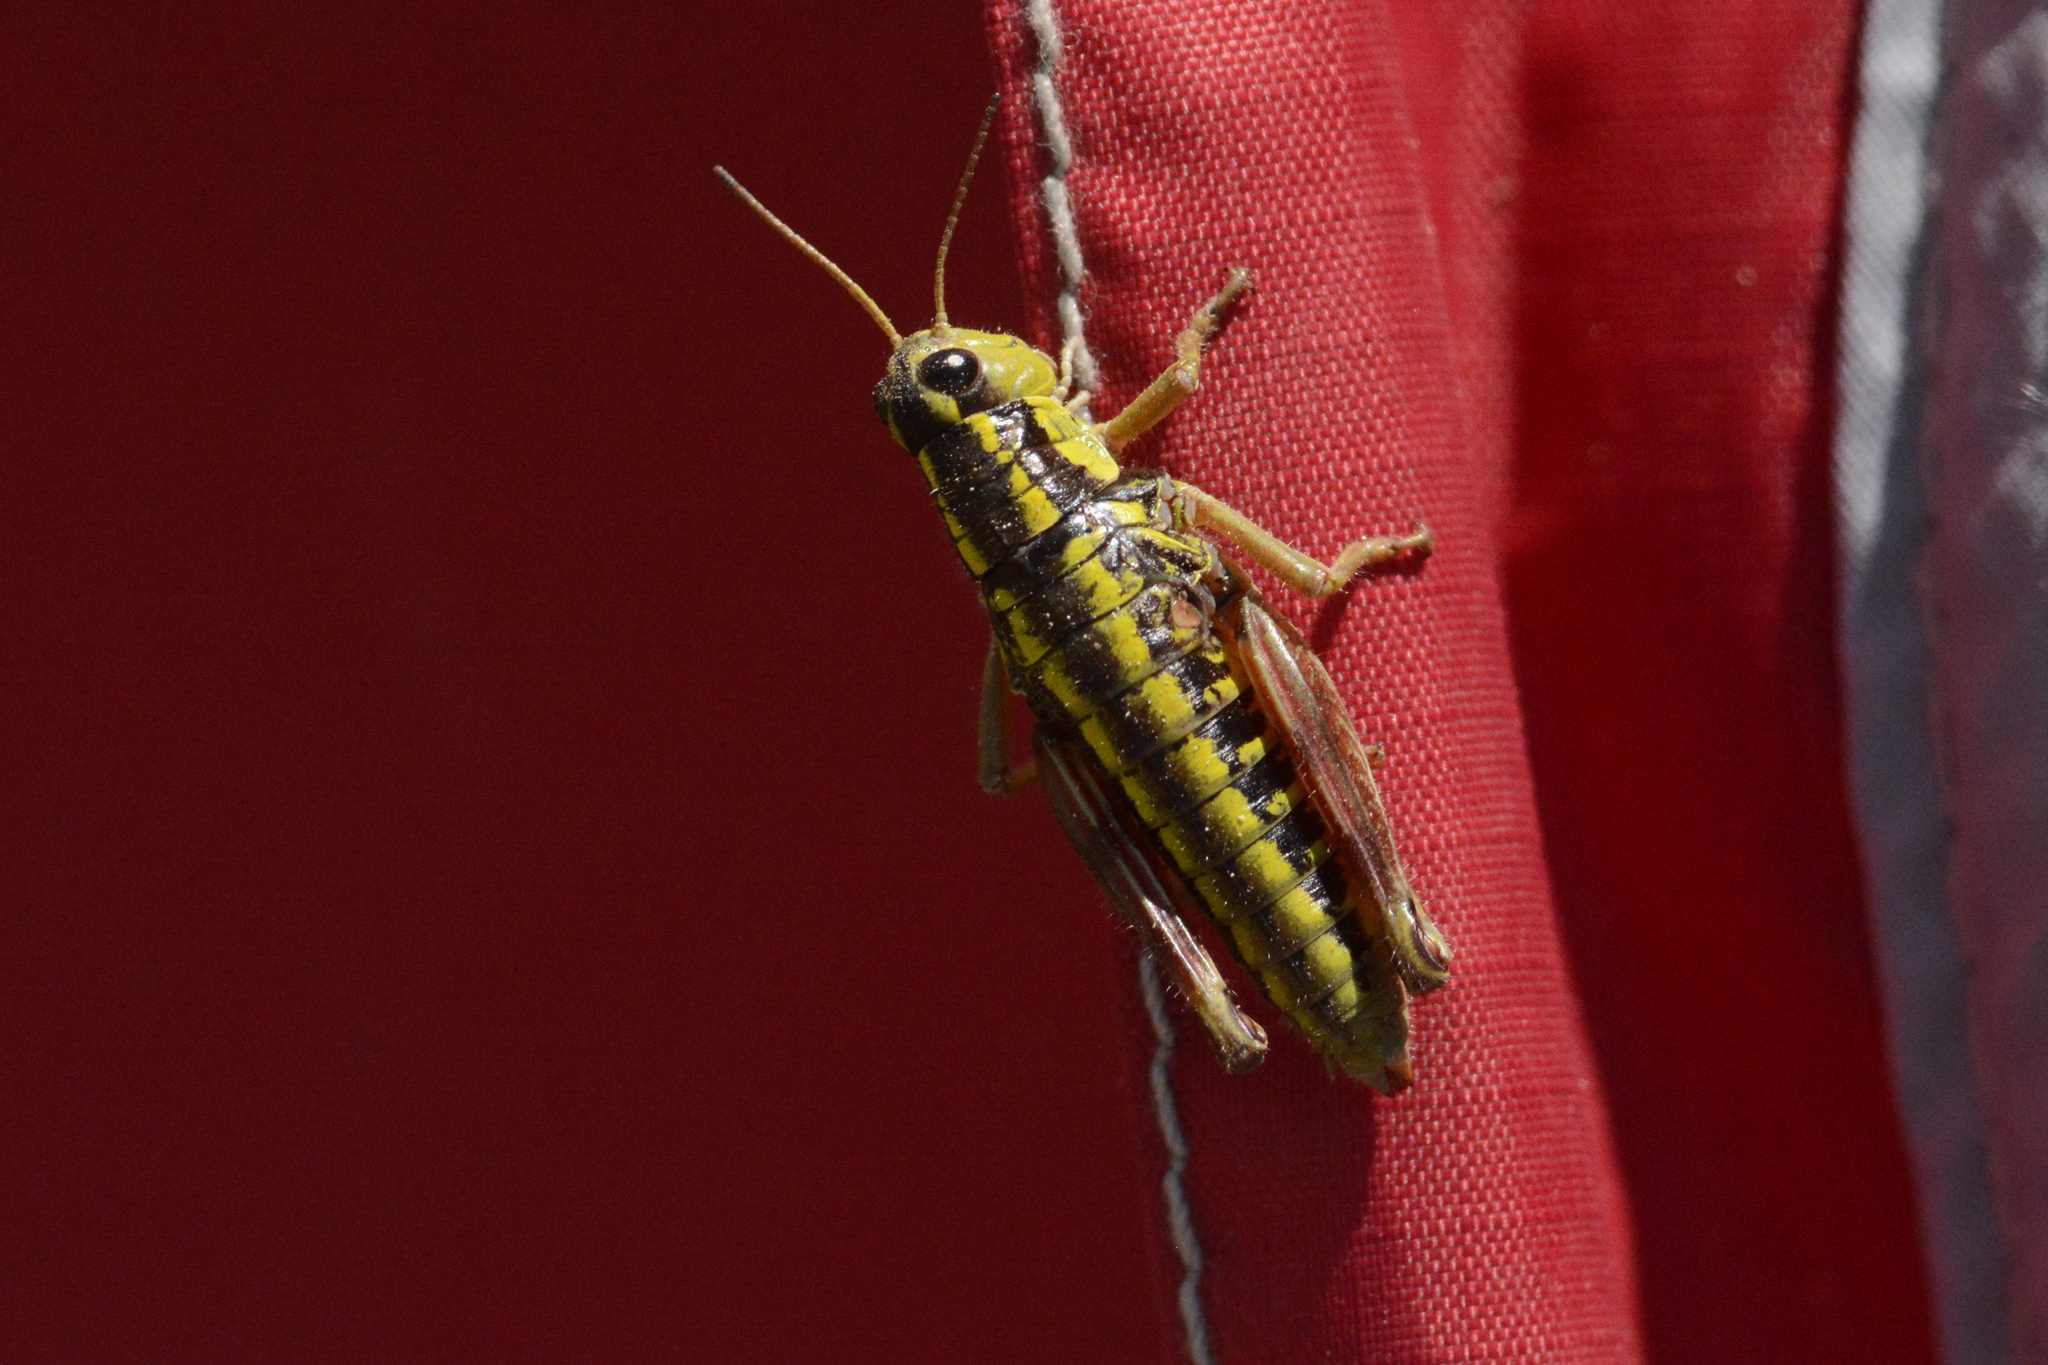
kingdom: Animalia
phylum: Arthropoda
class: Insecta
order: Orthoptera
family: Acrididae
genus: Buckellacris
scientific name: Buckellacris hispida
